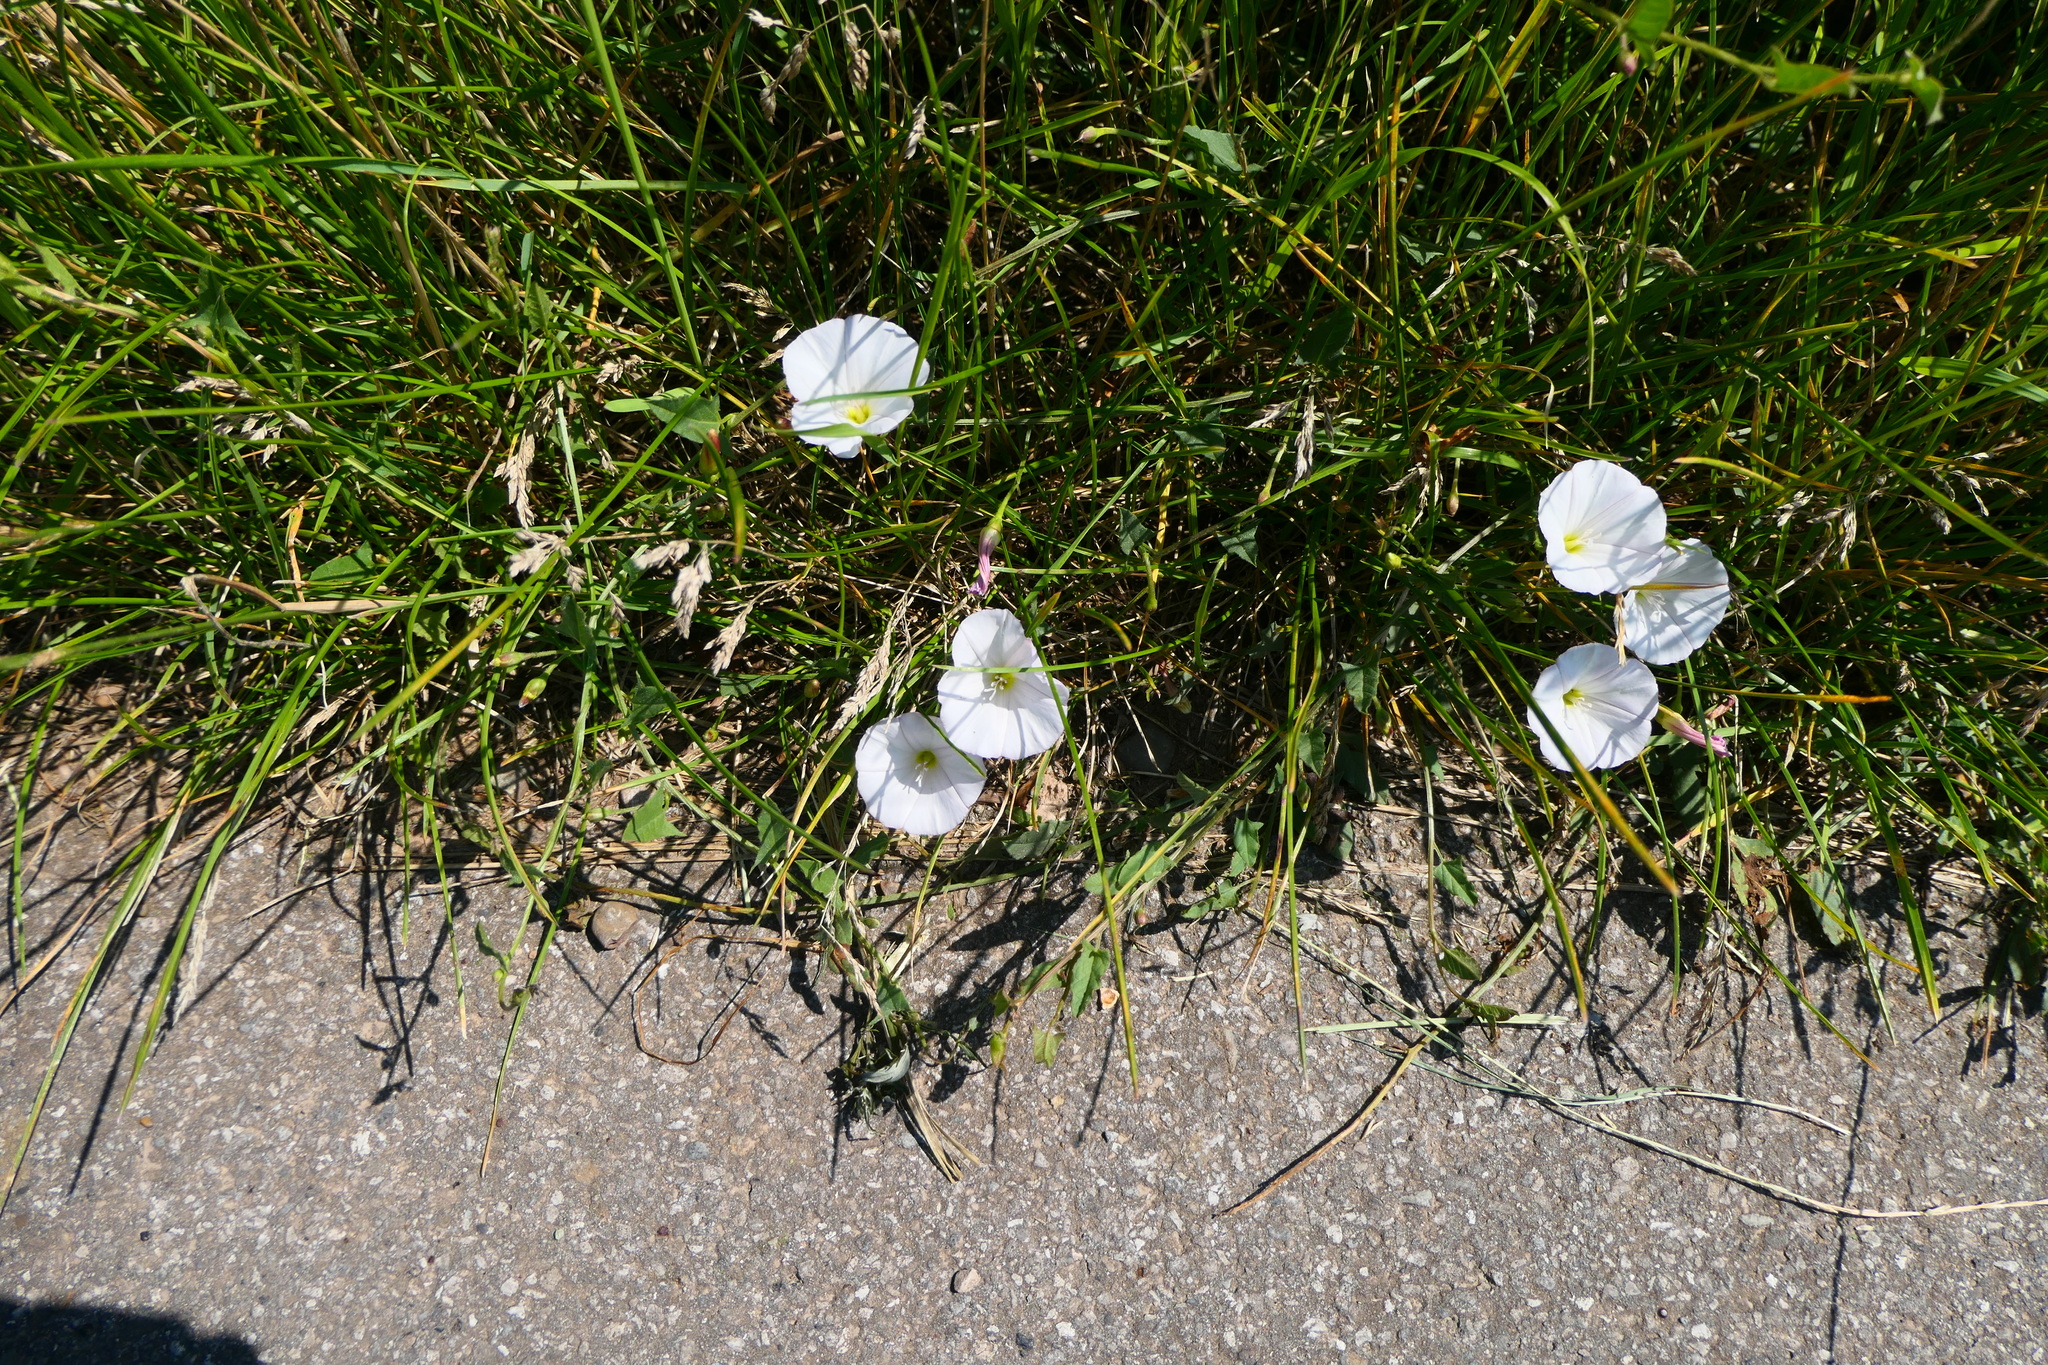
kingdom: Plantae
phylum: Tracheophyta
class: Magnoliopsida
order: Solanales
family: Convolvulaceae
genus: Convolvulus
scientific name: Convolvulus arvensis
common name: Field bindweed
